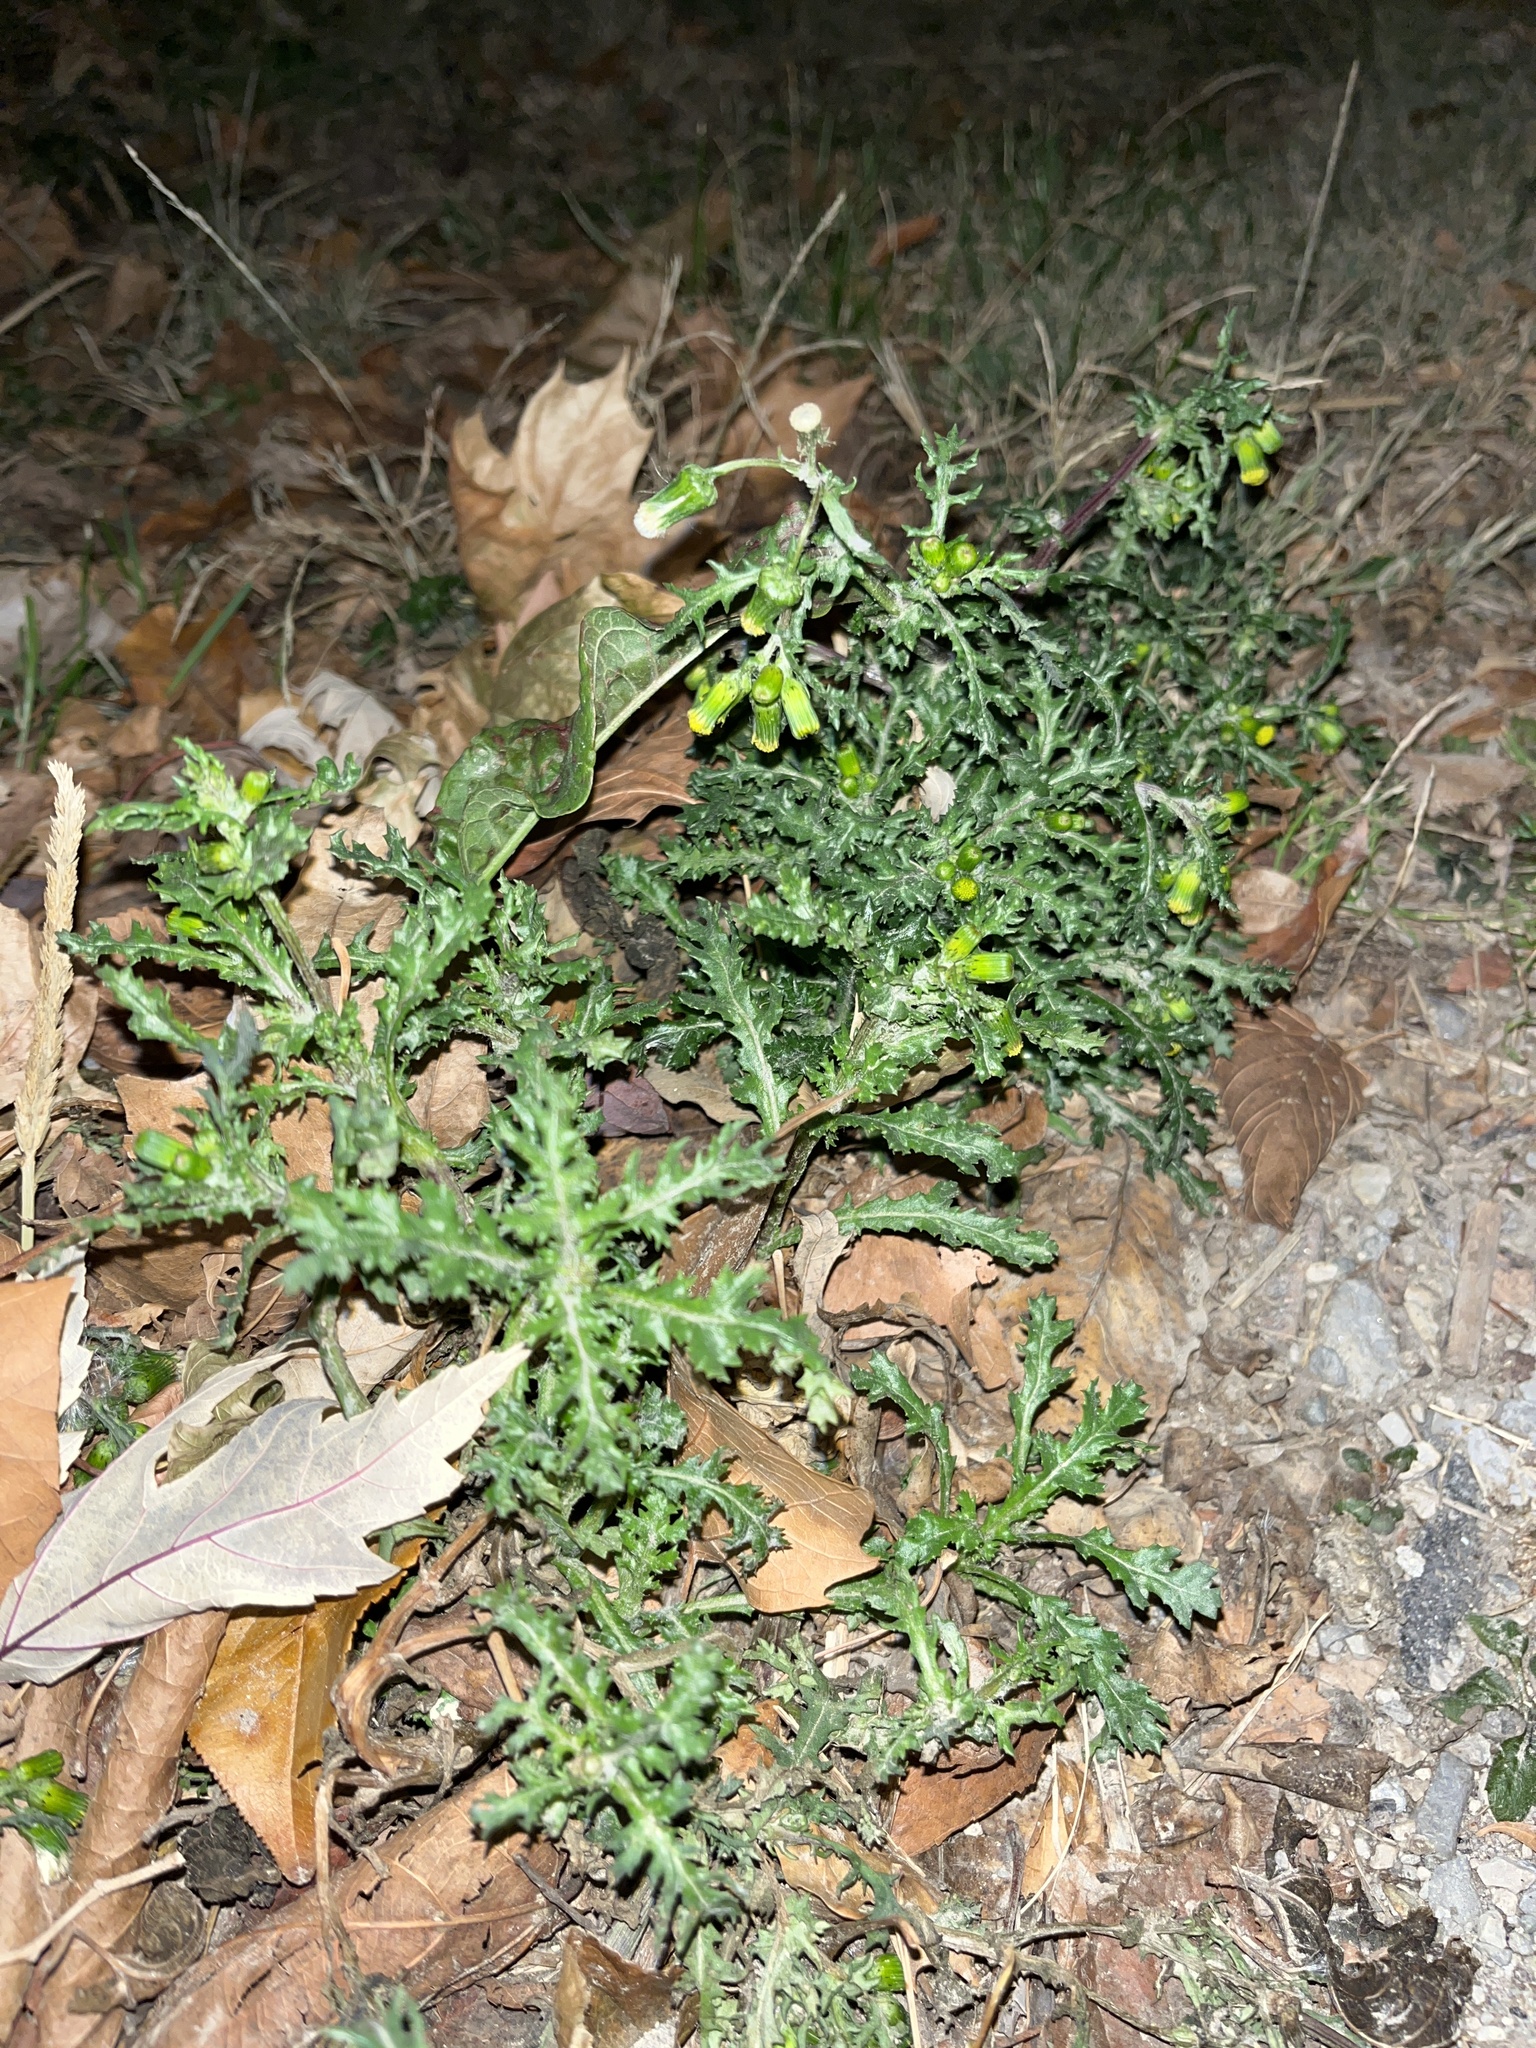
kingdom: Plantae
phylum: Tracheophyta
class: Magnoliopsida
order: Asterales
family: Asteraceae
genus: Senecio
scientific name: Senecio vulgaris
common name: Old-man-in-the-spring
